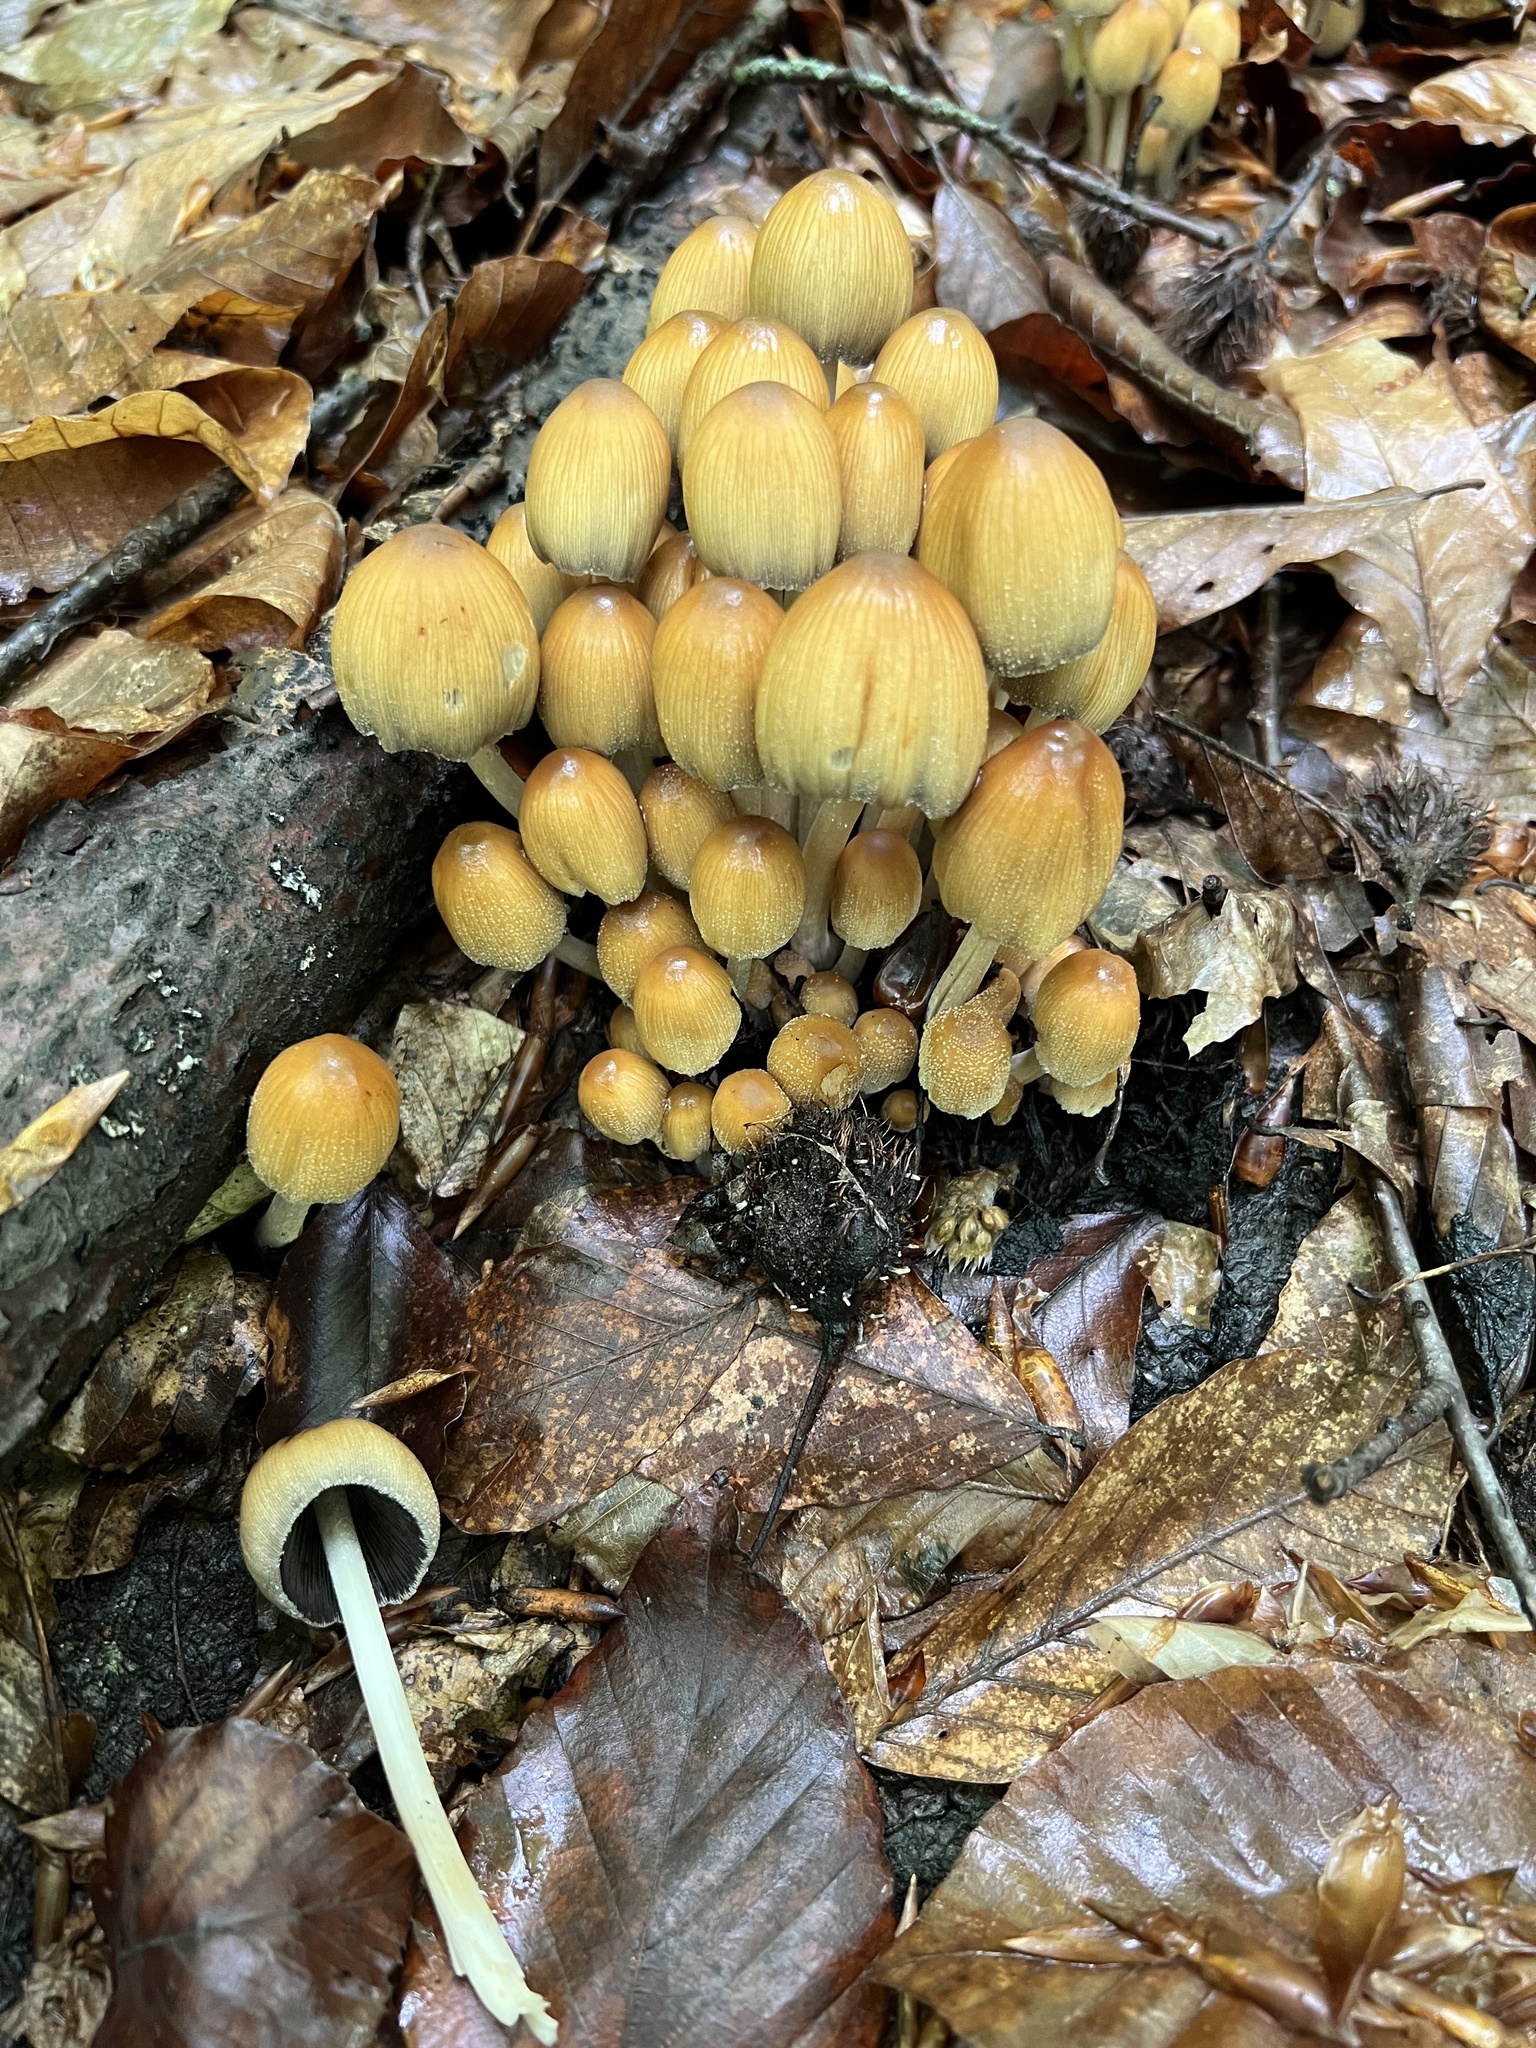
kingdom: Fungi
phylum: Basidiomycota
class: Agaricomycetes
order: Agaricales
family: Psathyrellaceae
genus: Coprinellus
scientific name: Coprinellus micaceus
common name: Glistening ink-cap
